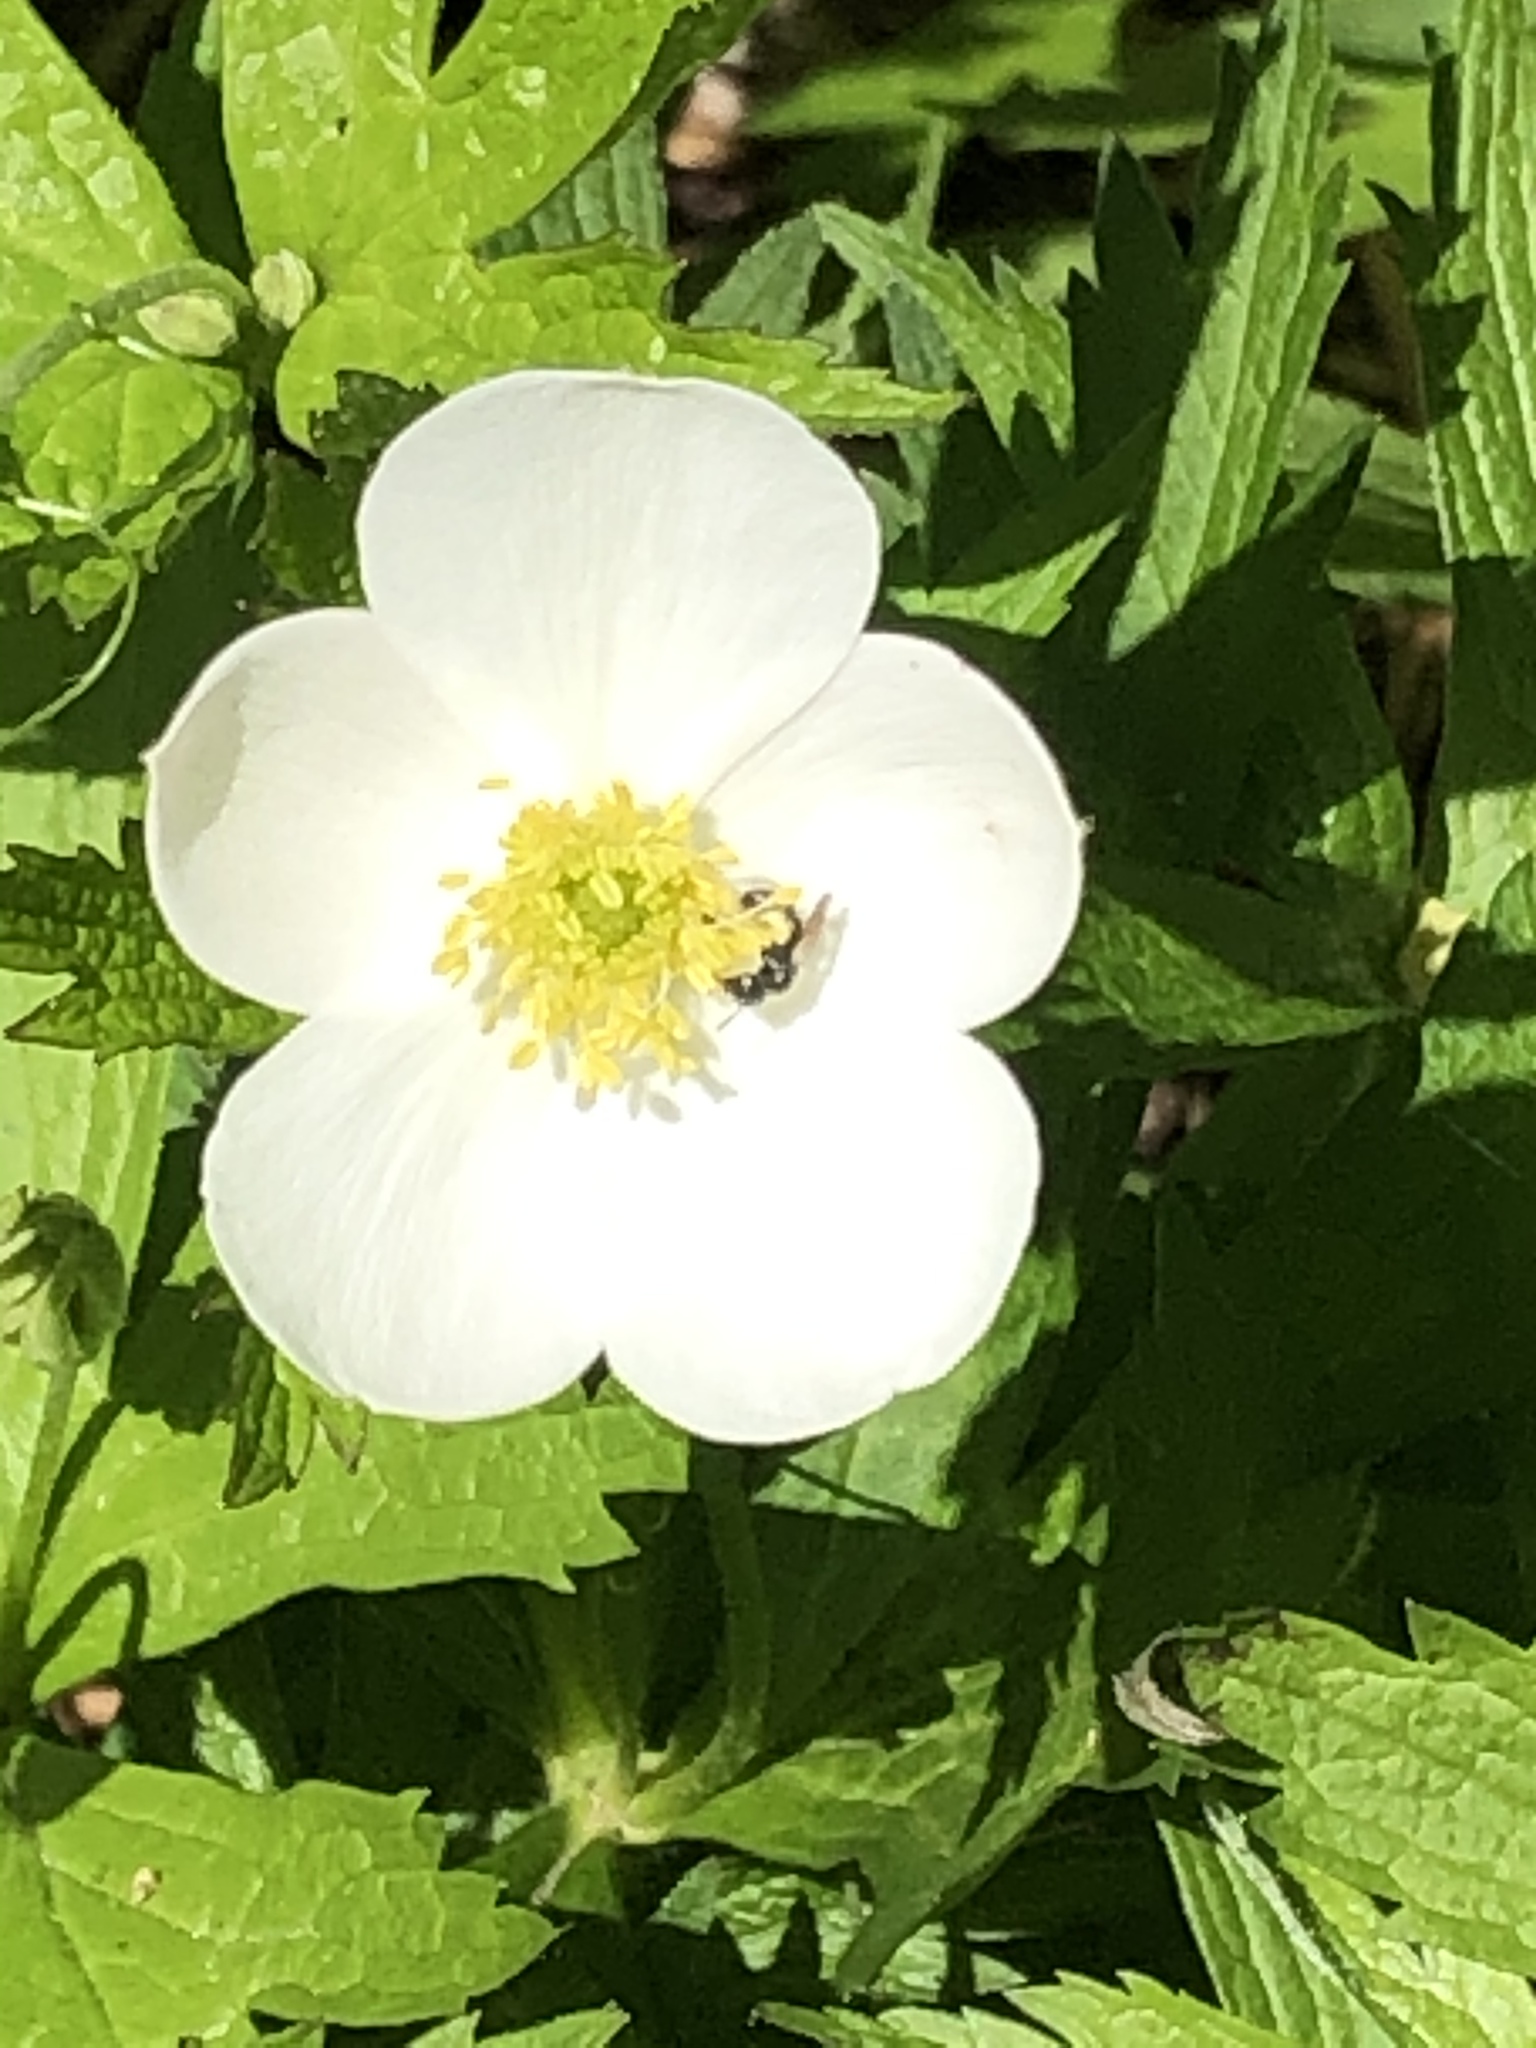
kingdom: Plantae
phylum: Tracheophyta
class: Magnoliopsida
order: Ranunculales
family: Ranunculaceae
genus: Anemonastrum
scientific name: Anemonastrum canadense
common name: Canada anemone
